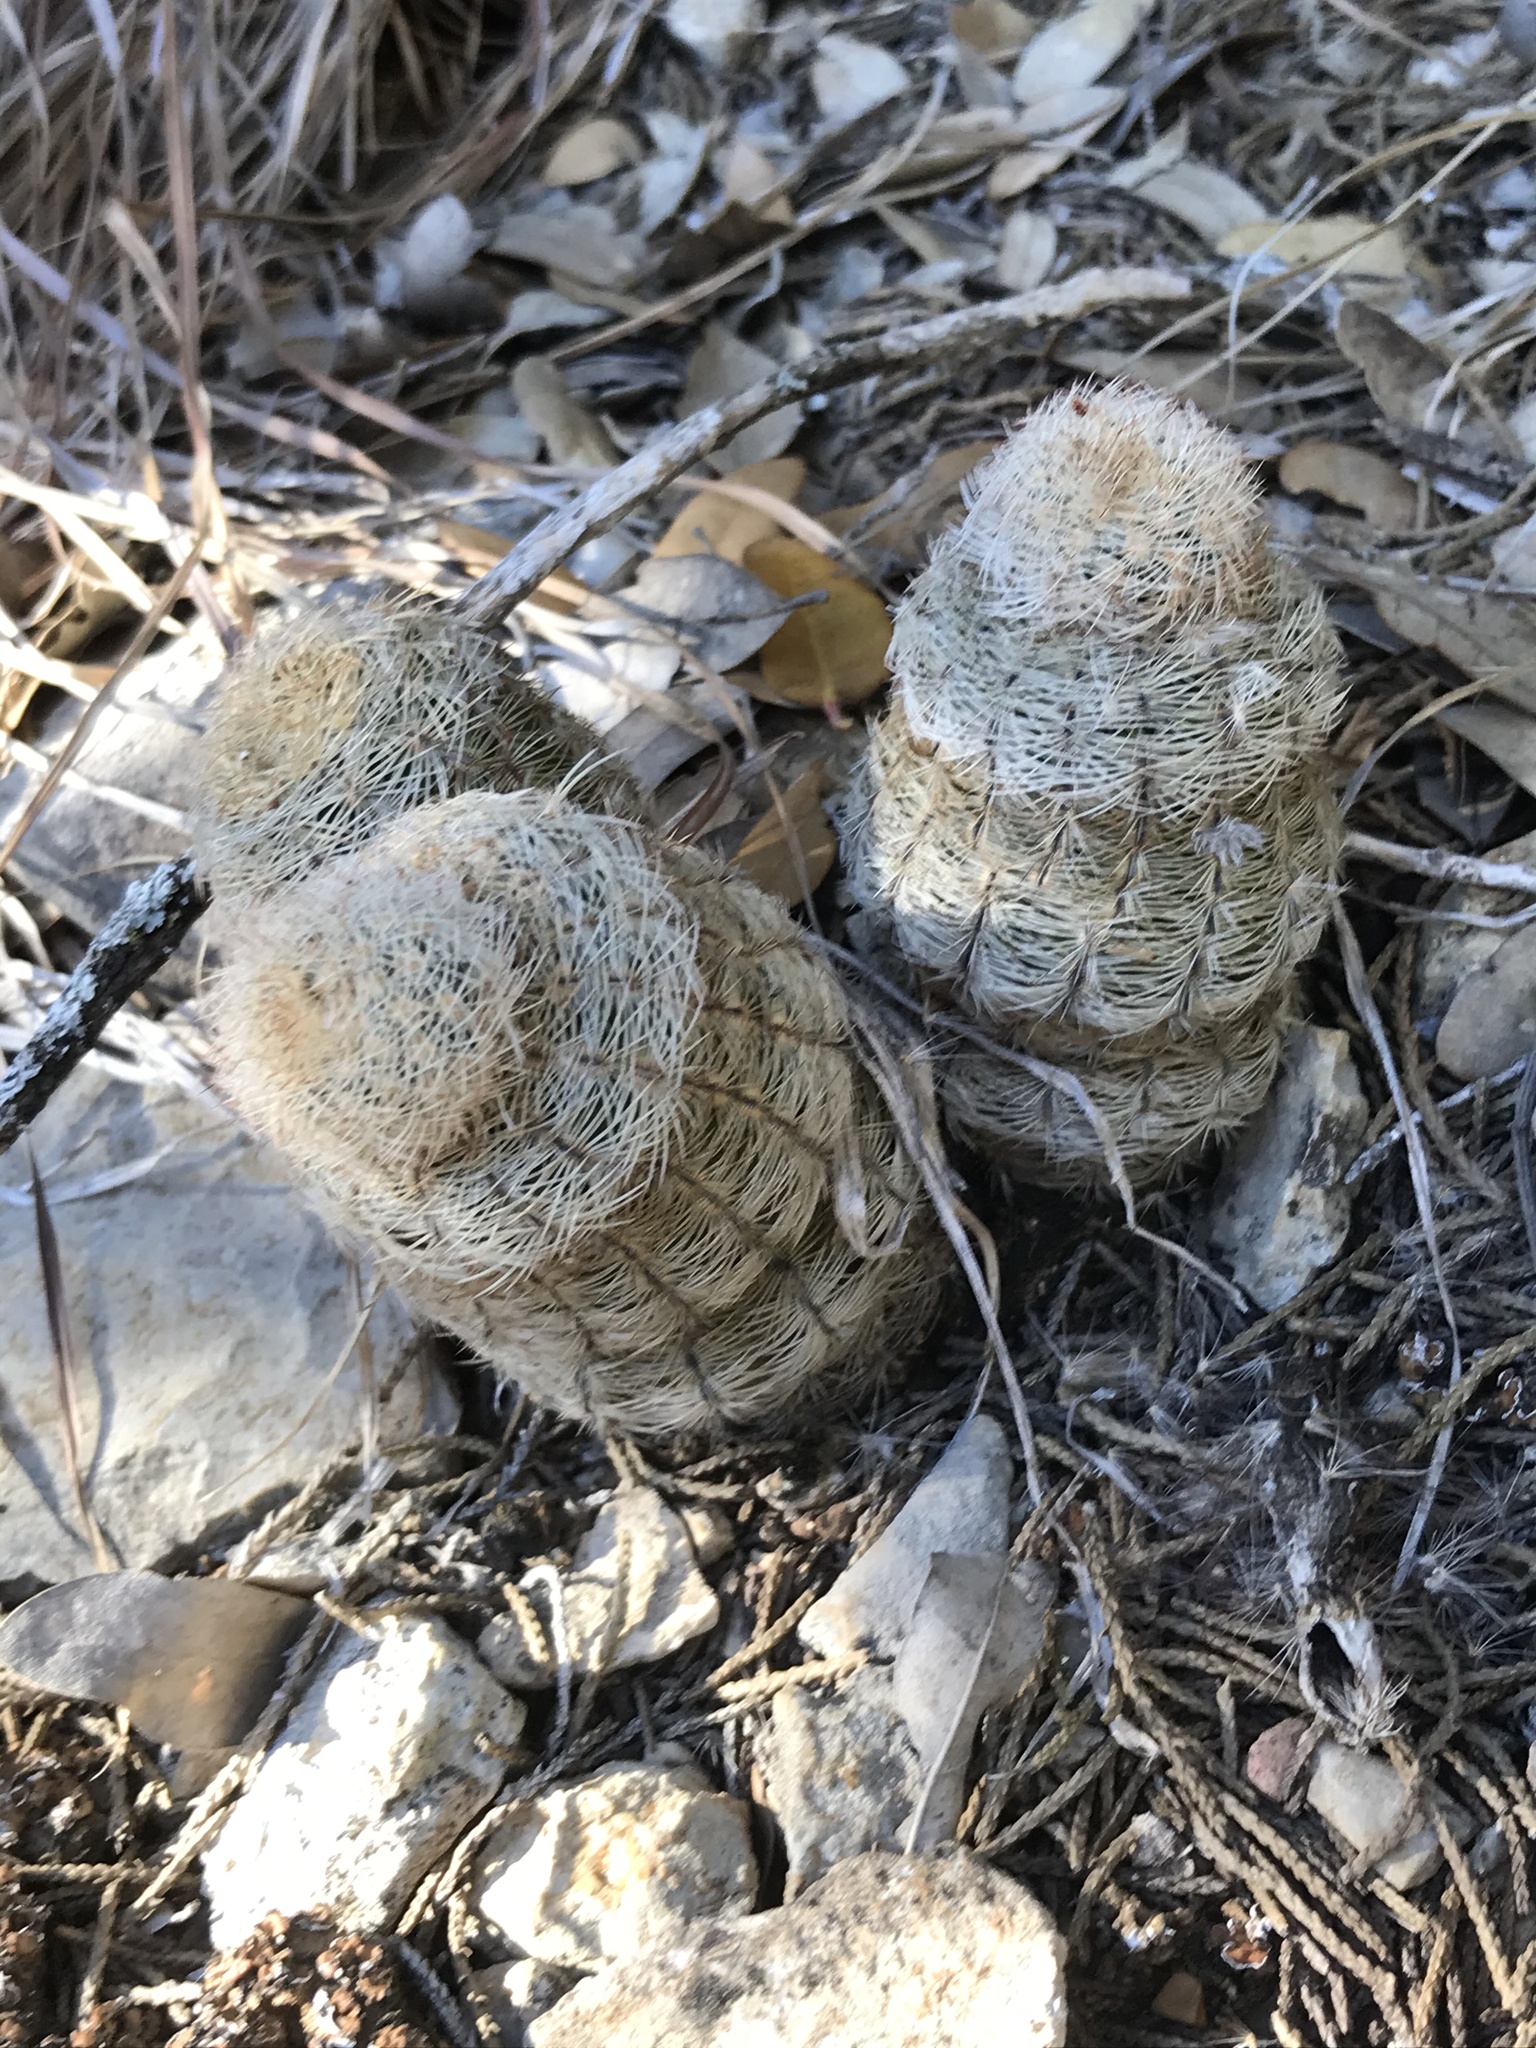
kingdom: Plantae
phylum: Tracheophyta
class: Magnoliopsida
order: Caryophyllales
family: Cactaceae
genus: Echinocereus
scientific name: Echinocereus reichenbachii
